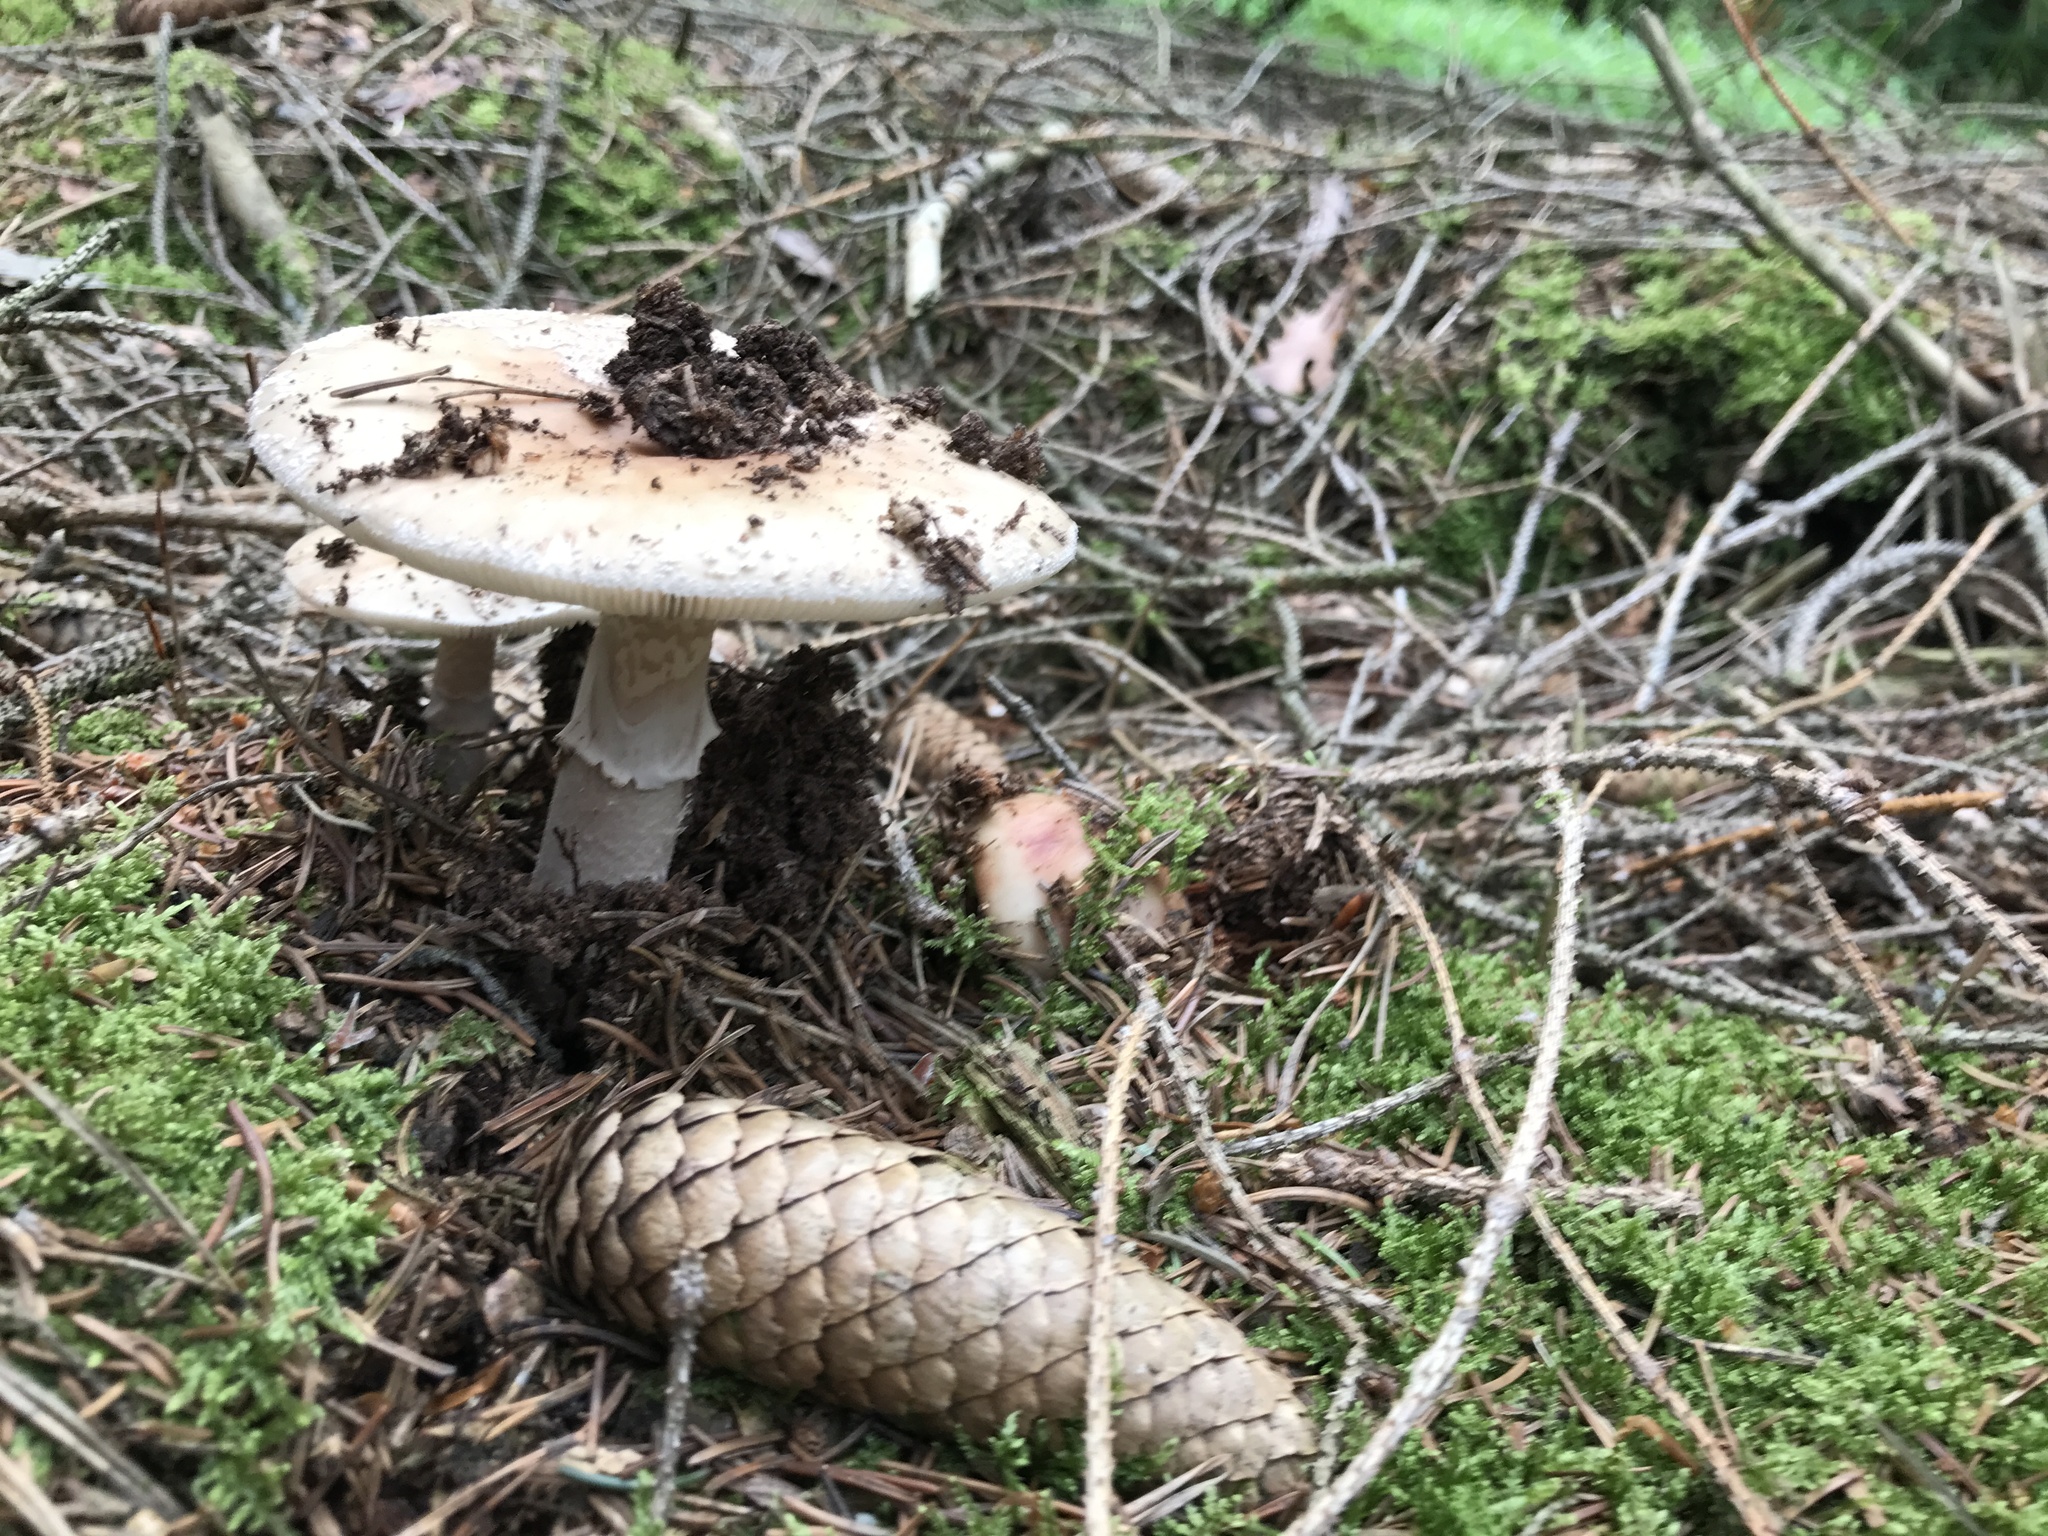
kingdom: Fungi
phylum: Basidiomycota
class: Agaricomycetes
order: Agaricales
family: Amanitaceae
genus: Amanita
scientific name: Amanita rubescens
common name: Blusher
